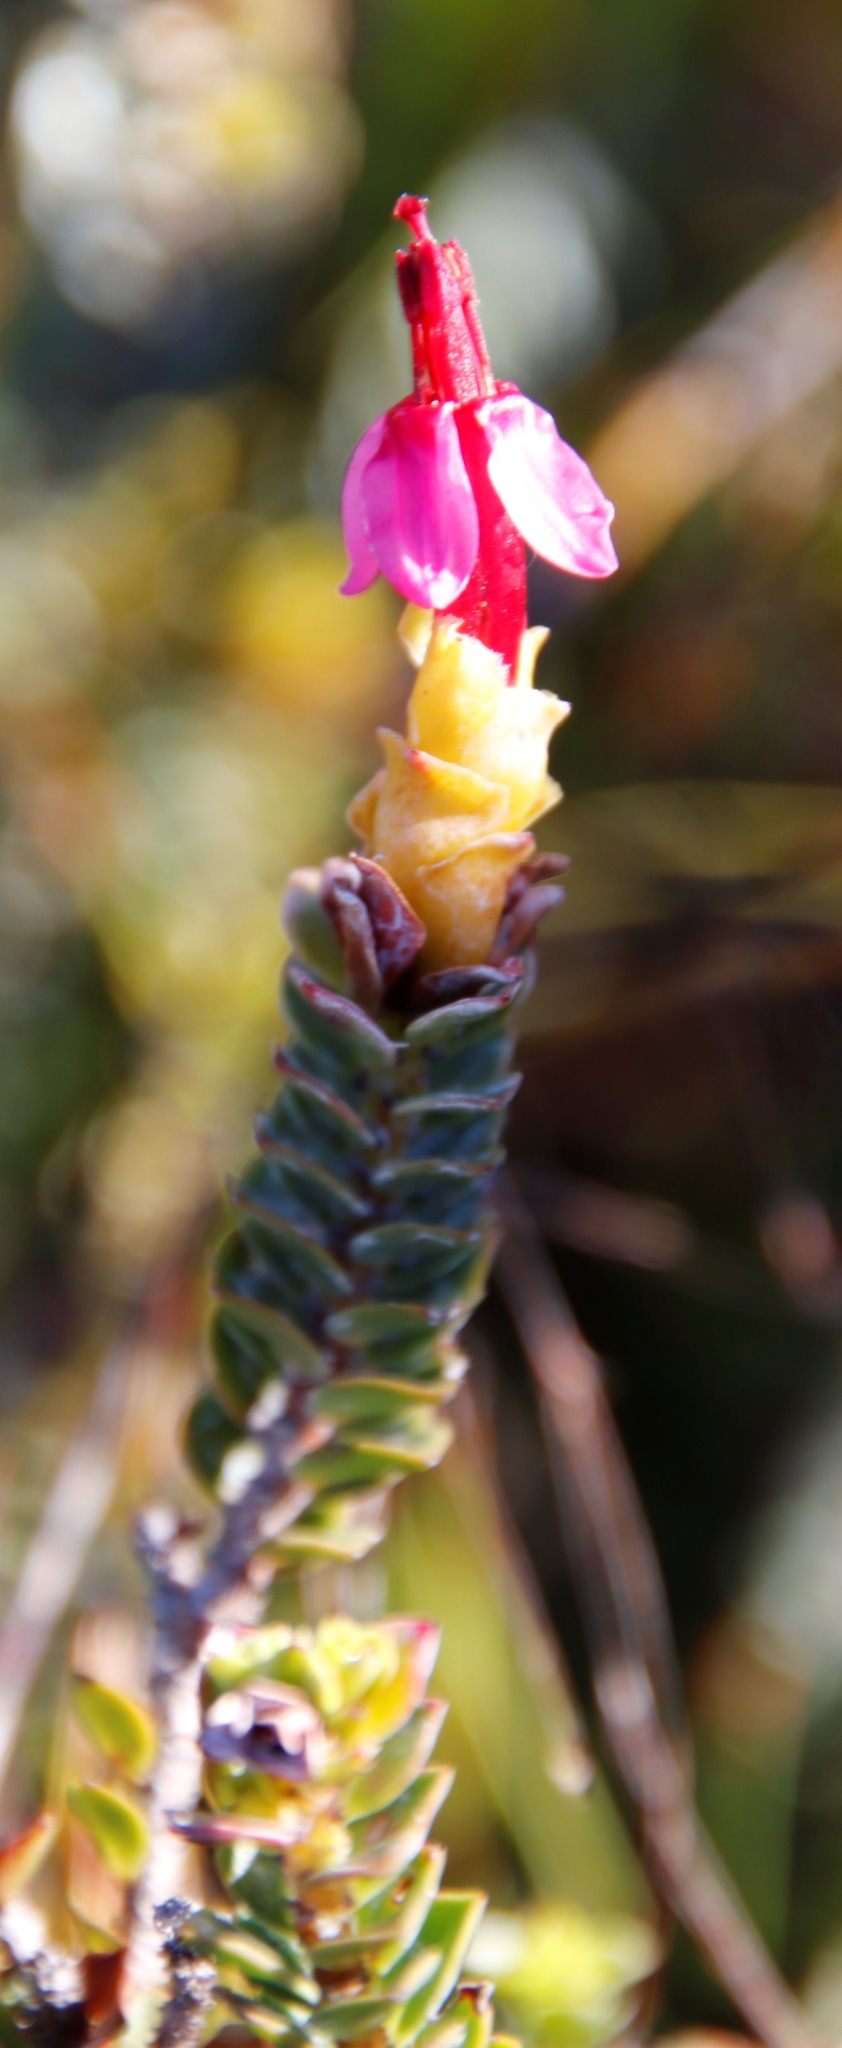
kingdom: Plantae
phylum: Tracheophyta
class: Magnoliopsida
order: Myrtales
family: Penaeaceae
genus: Saltera
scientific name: Saltera sarcocolla
